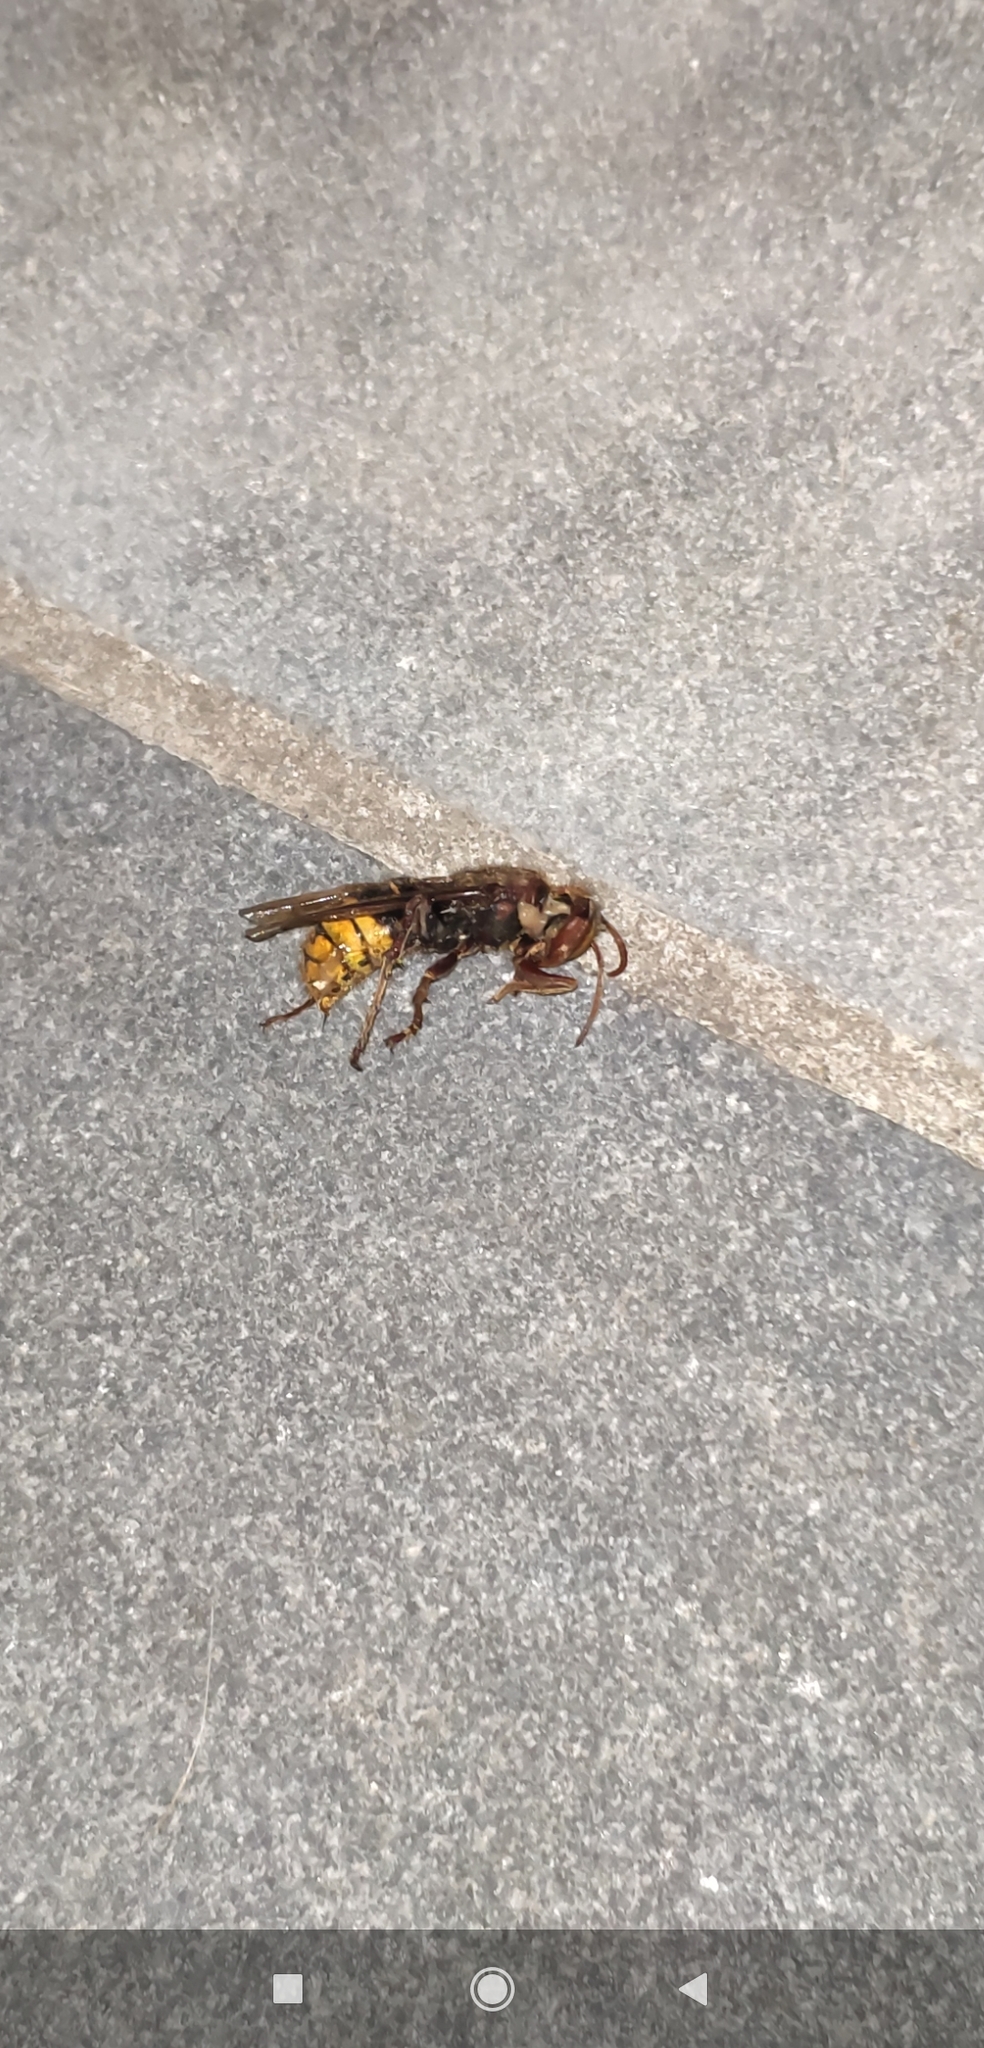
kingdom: Animalia
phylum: Arthropoda
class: Insecta
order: Hymenoptera
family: Vespidae
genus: Vespa
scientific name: Vespa crabro
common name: Hornet
